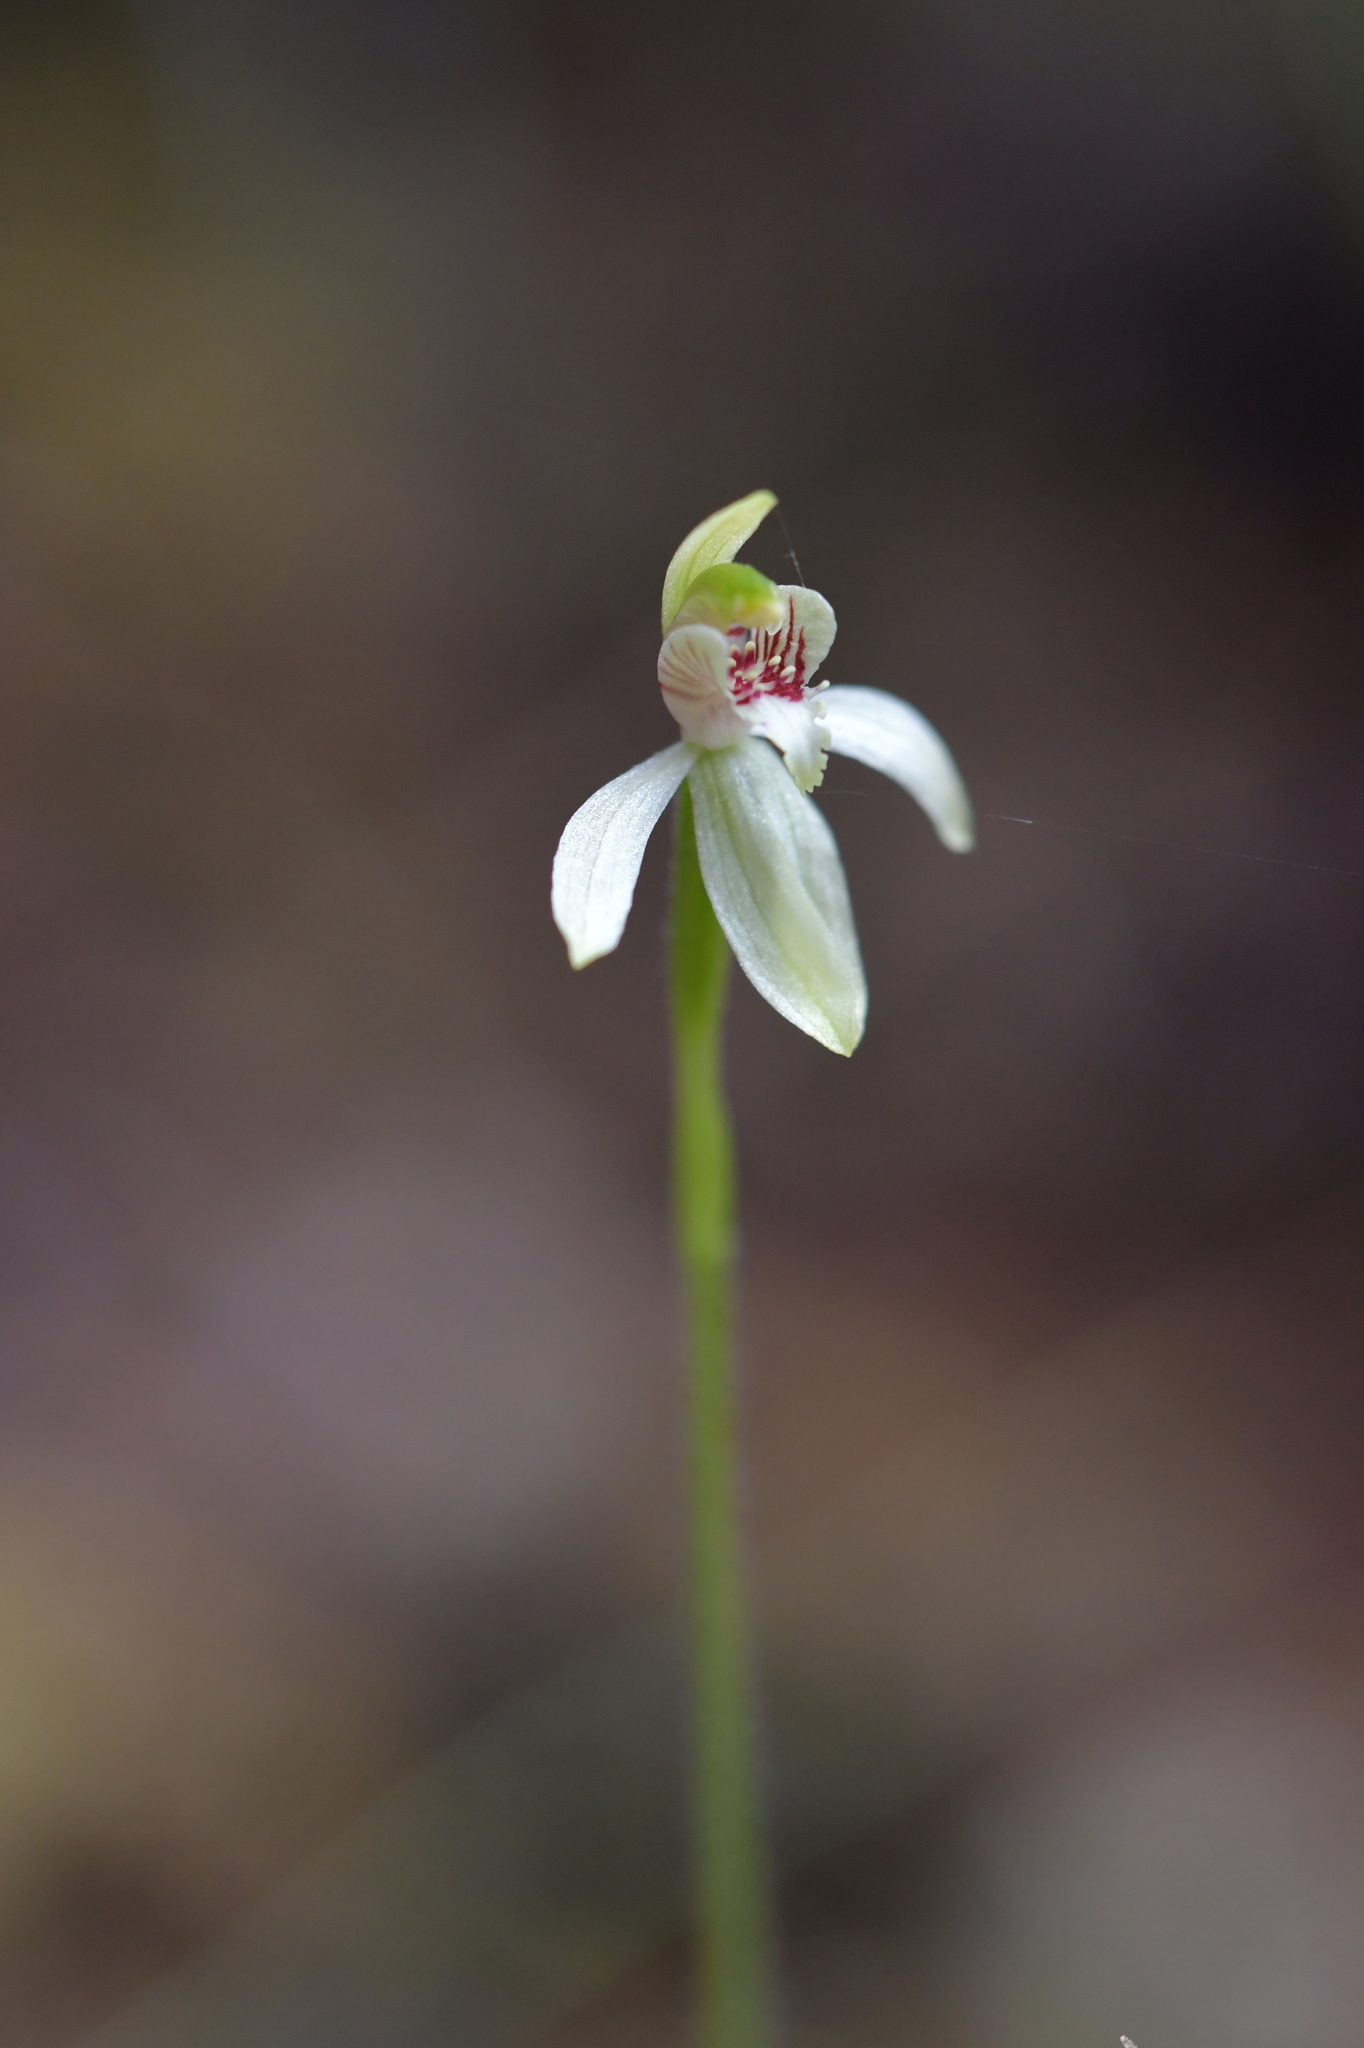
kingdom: Plantae
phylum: Tracheophyta
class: Liliopsida
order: Asparagales
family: Orchidaceae
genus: Caladenia
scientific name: Caladenia chlorostyla
